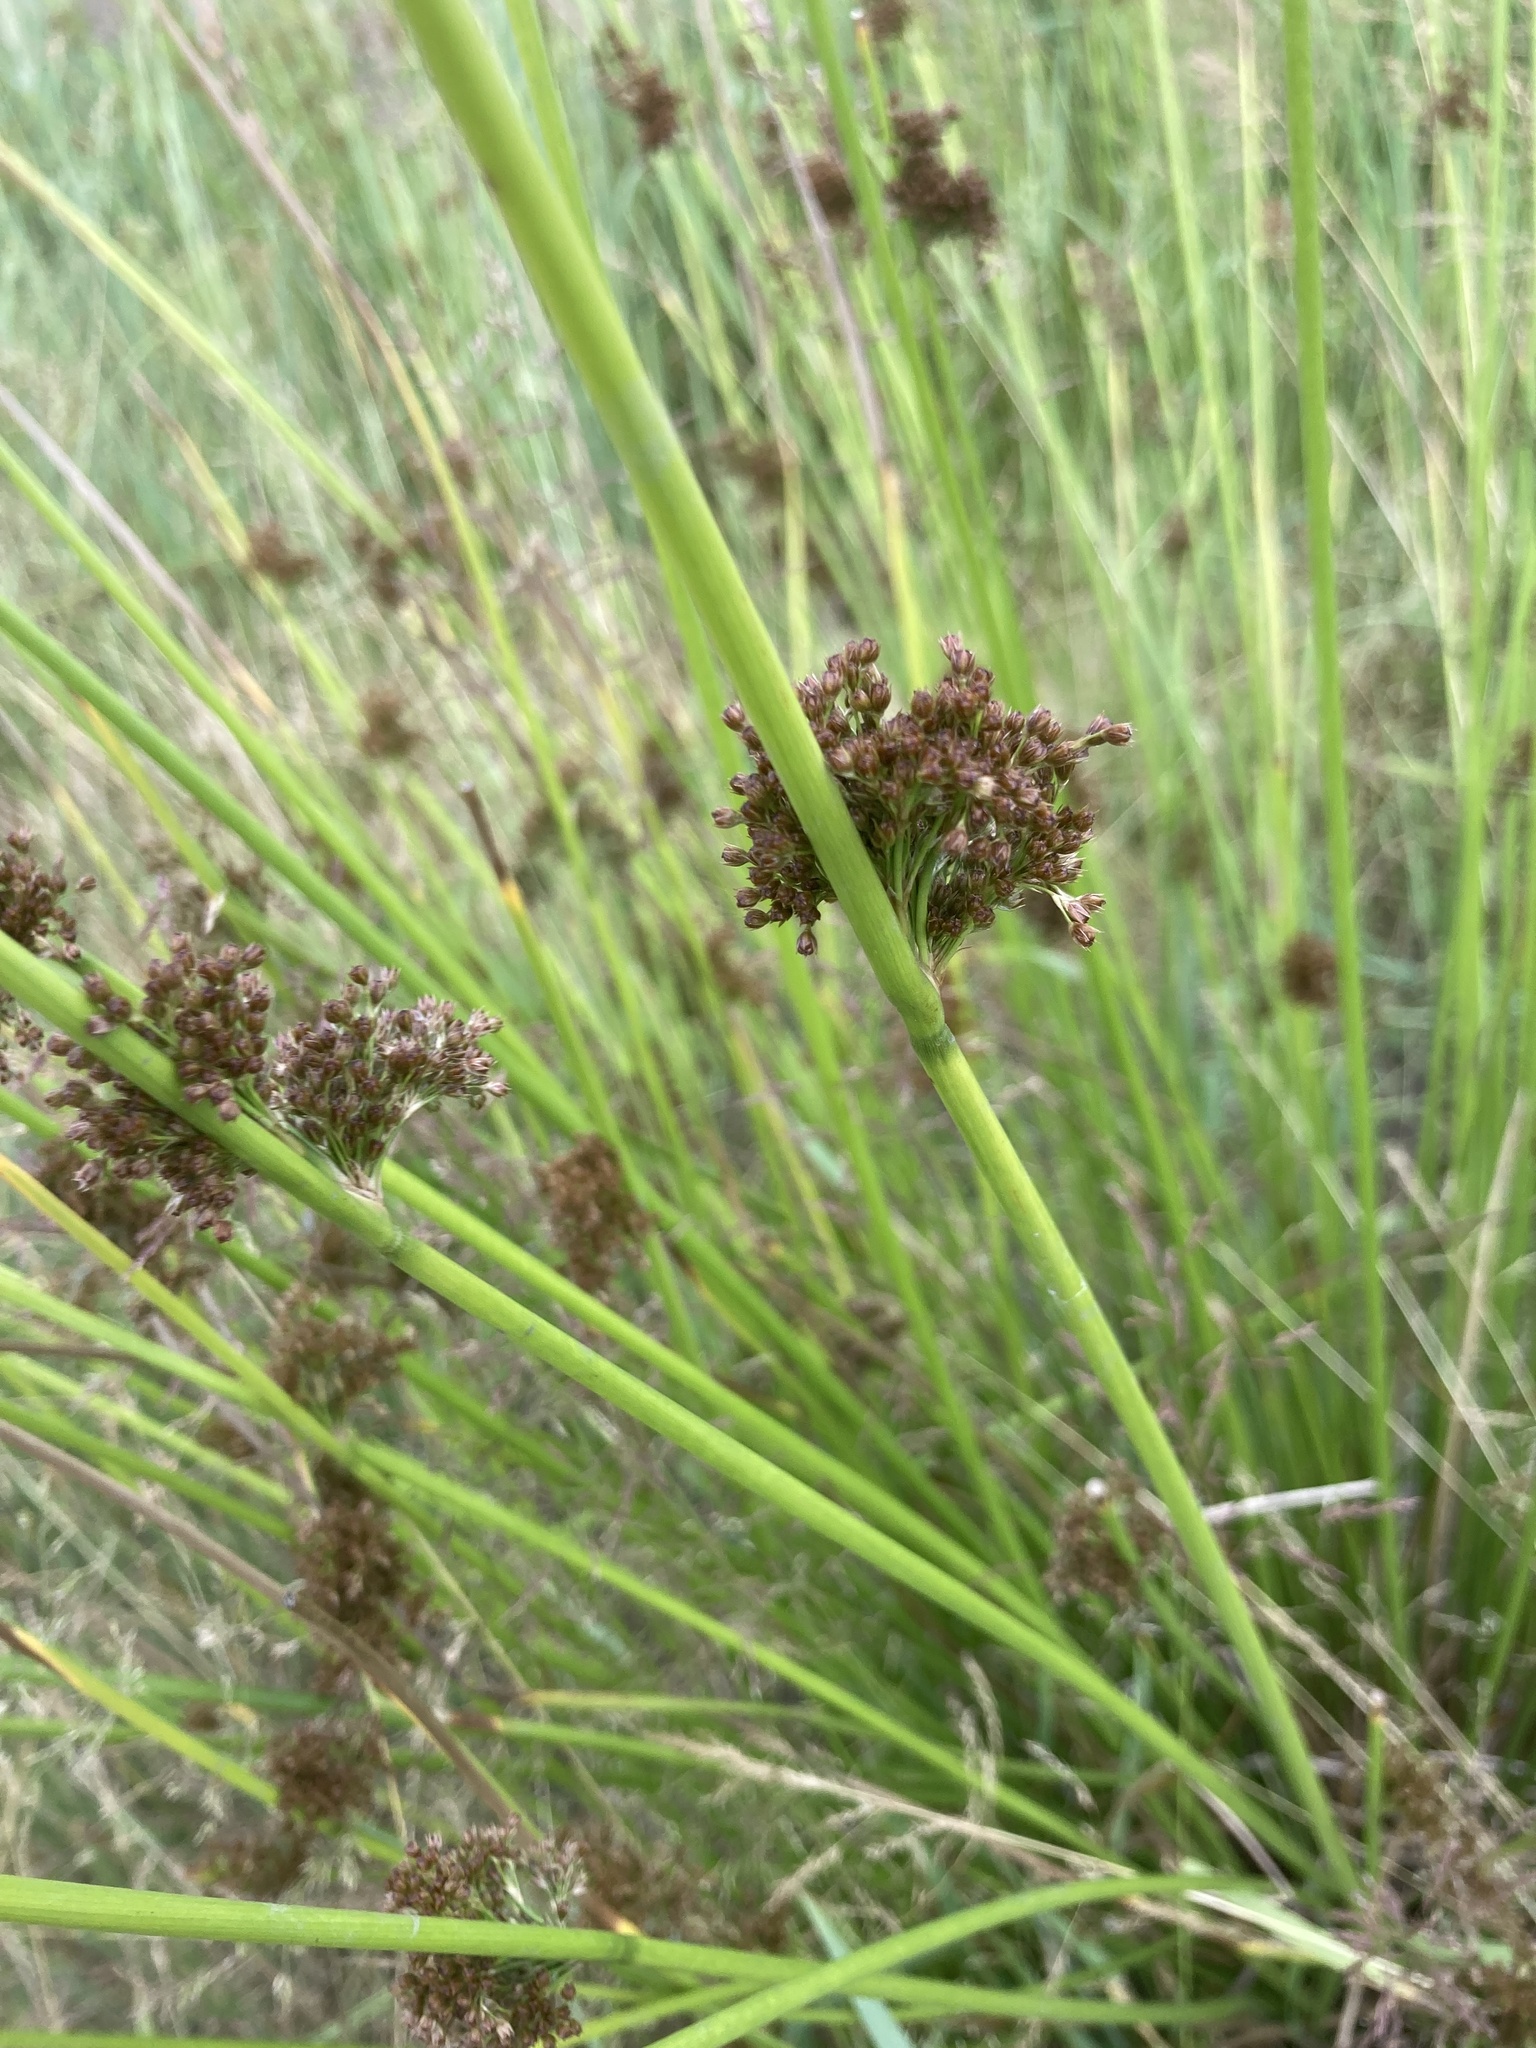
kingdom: Plantae
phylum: Tracheophyta
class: Liliopsida
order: Poales
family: Juncaceae
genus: Juncus
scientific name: Juncus effusus
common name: Soft rush
